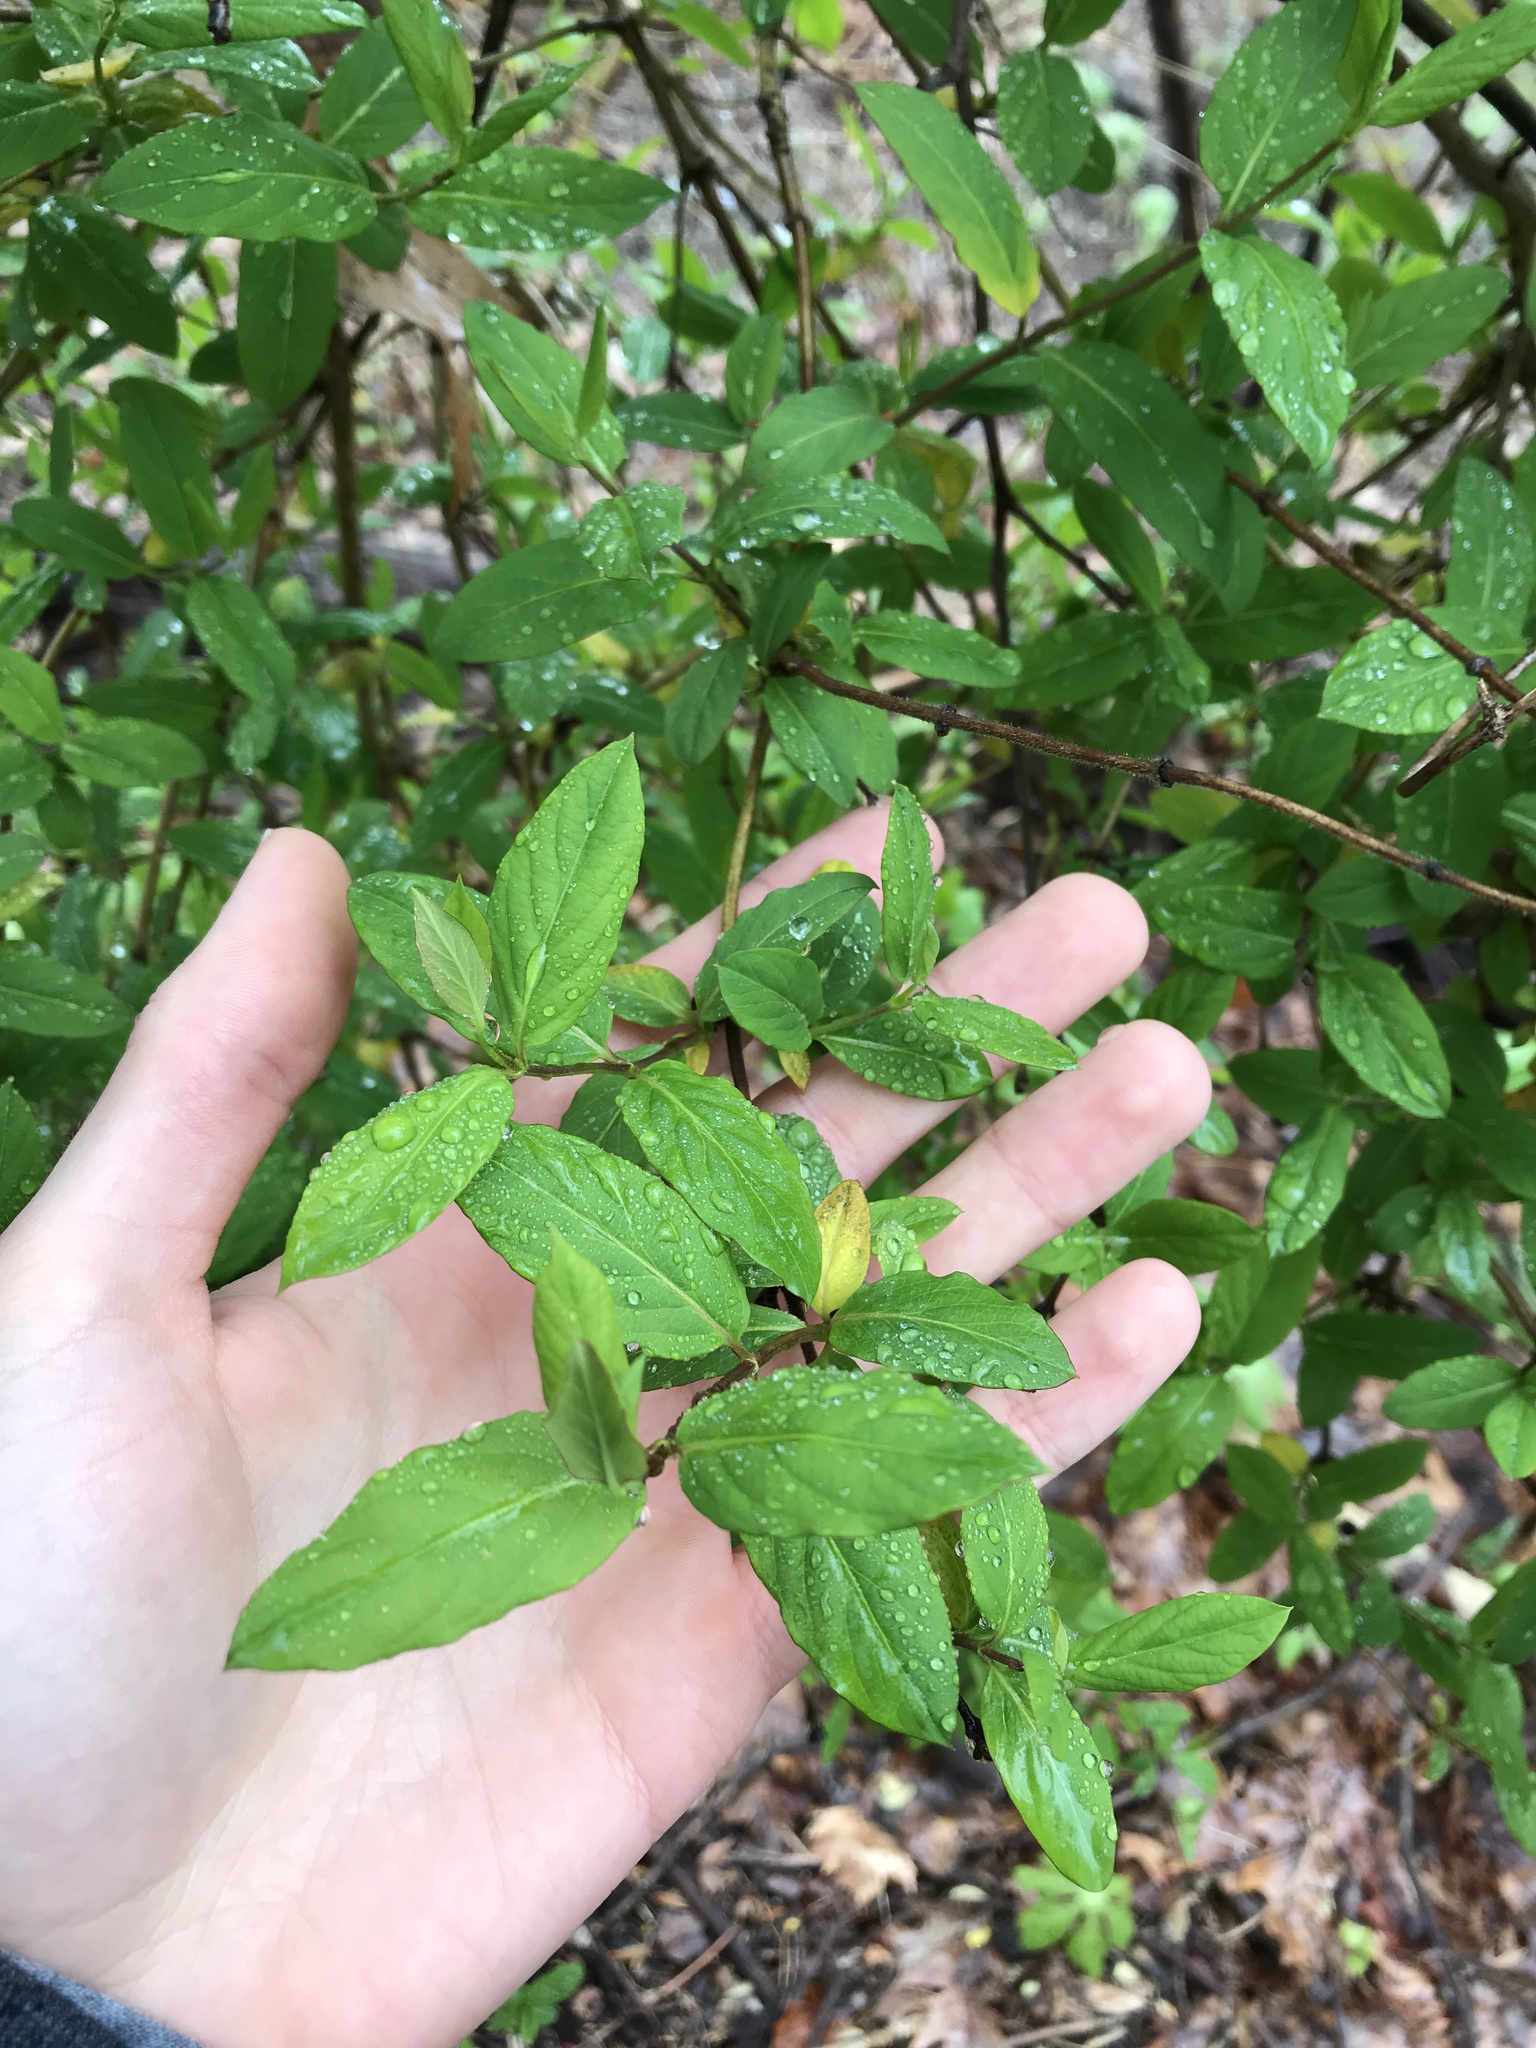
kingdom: Plantae
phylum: Tracheophyta
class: Magnoliopsida
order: Dipsacales
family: Caprifoliaceae
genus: Lonicera
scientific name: Lonicera japonica
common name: Japanese honeysuckle
